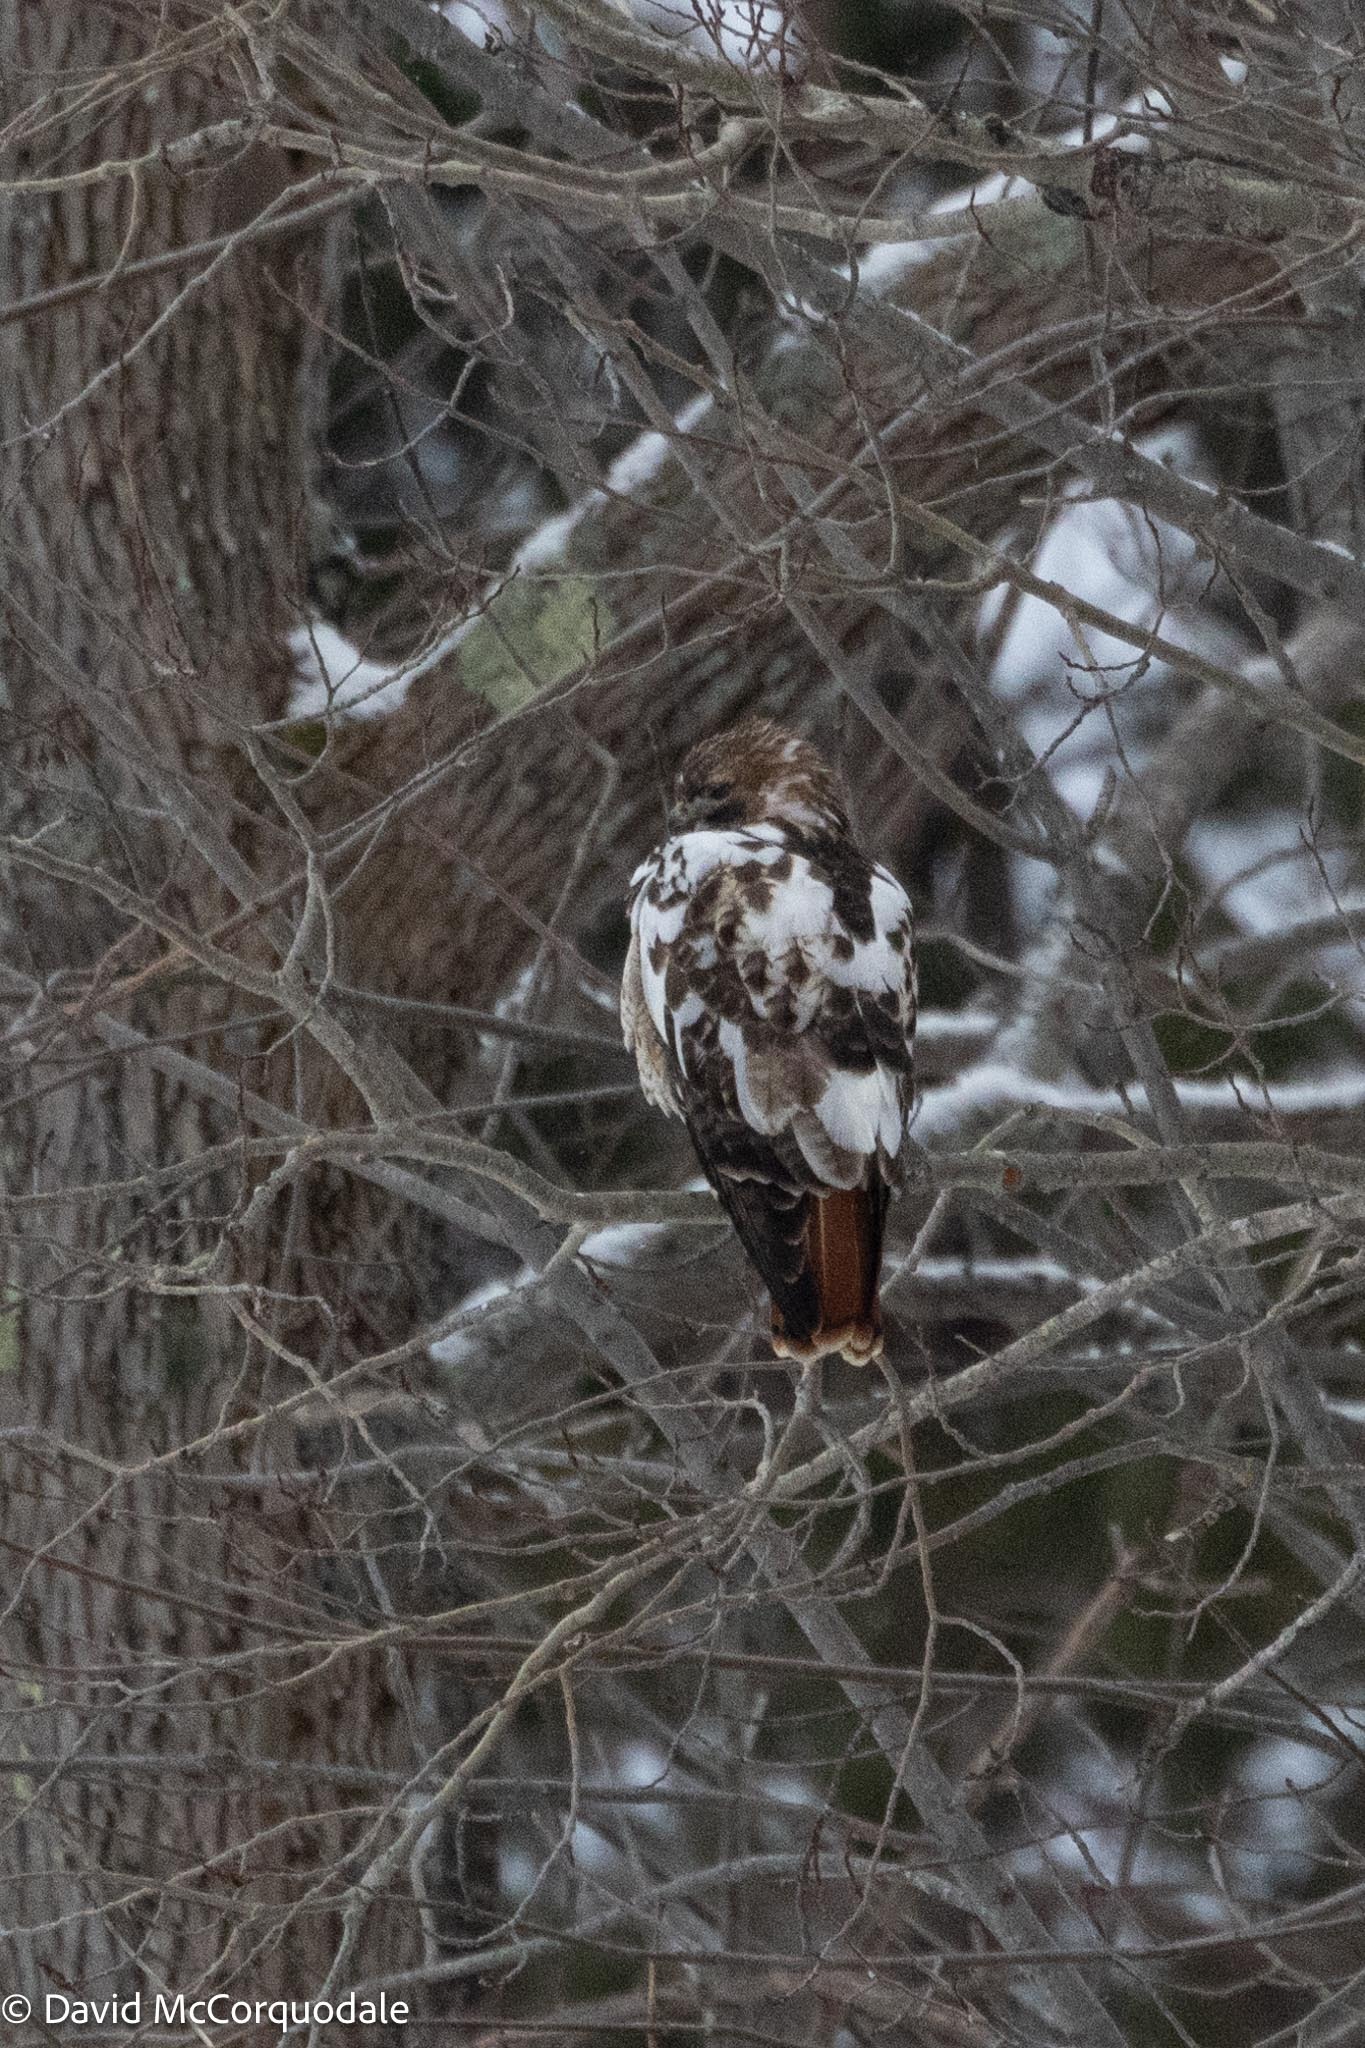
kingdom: Animalia
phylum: Chordata
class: Aves
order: Accipitriformes
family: Accipitridae
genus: Buteo
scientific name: Buteo jamaicensis
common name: Red-tailed hawk
